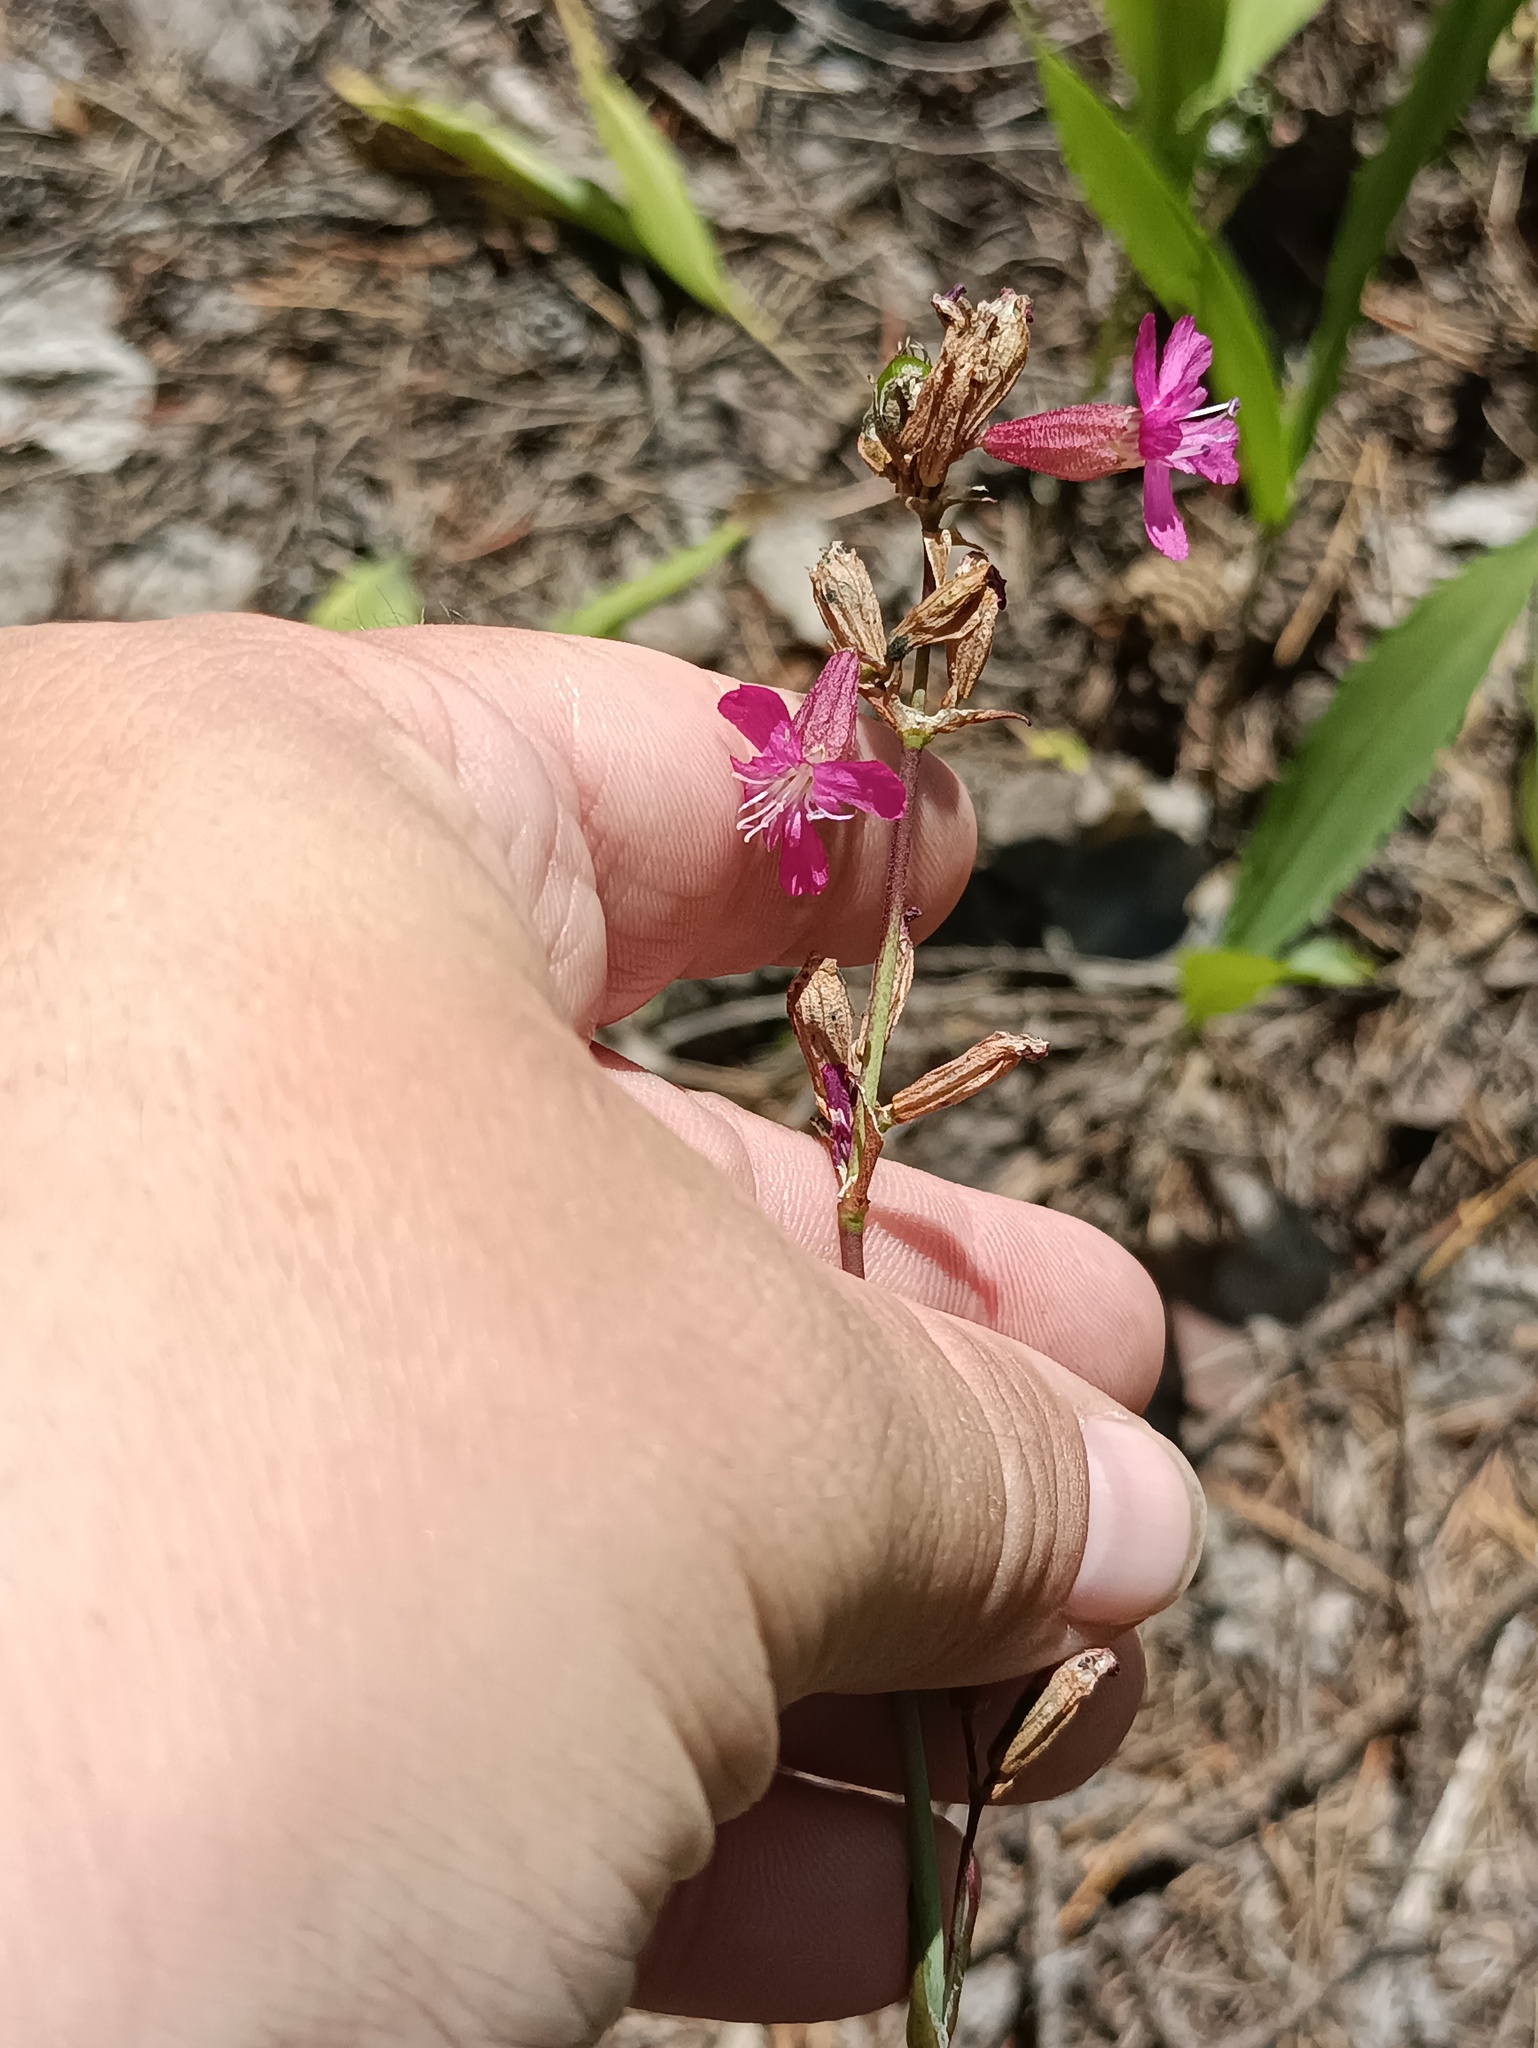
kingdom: Plantae
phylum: Tracheophyta
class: Magnoliopsida
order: Caryophyllales
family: Caryophyllaceae
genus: Viscaria
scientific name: Viscaria vulgaris
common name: Clammy campion
